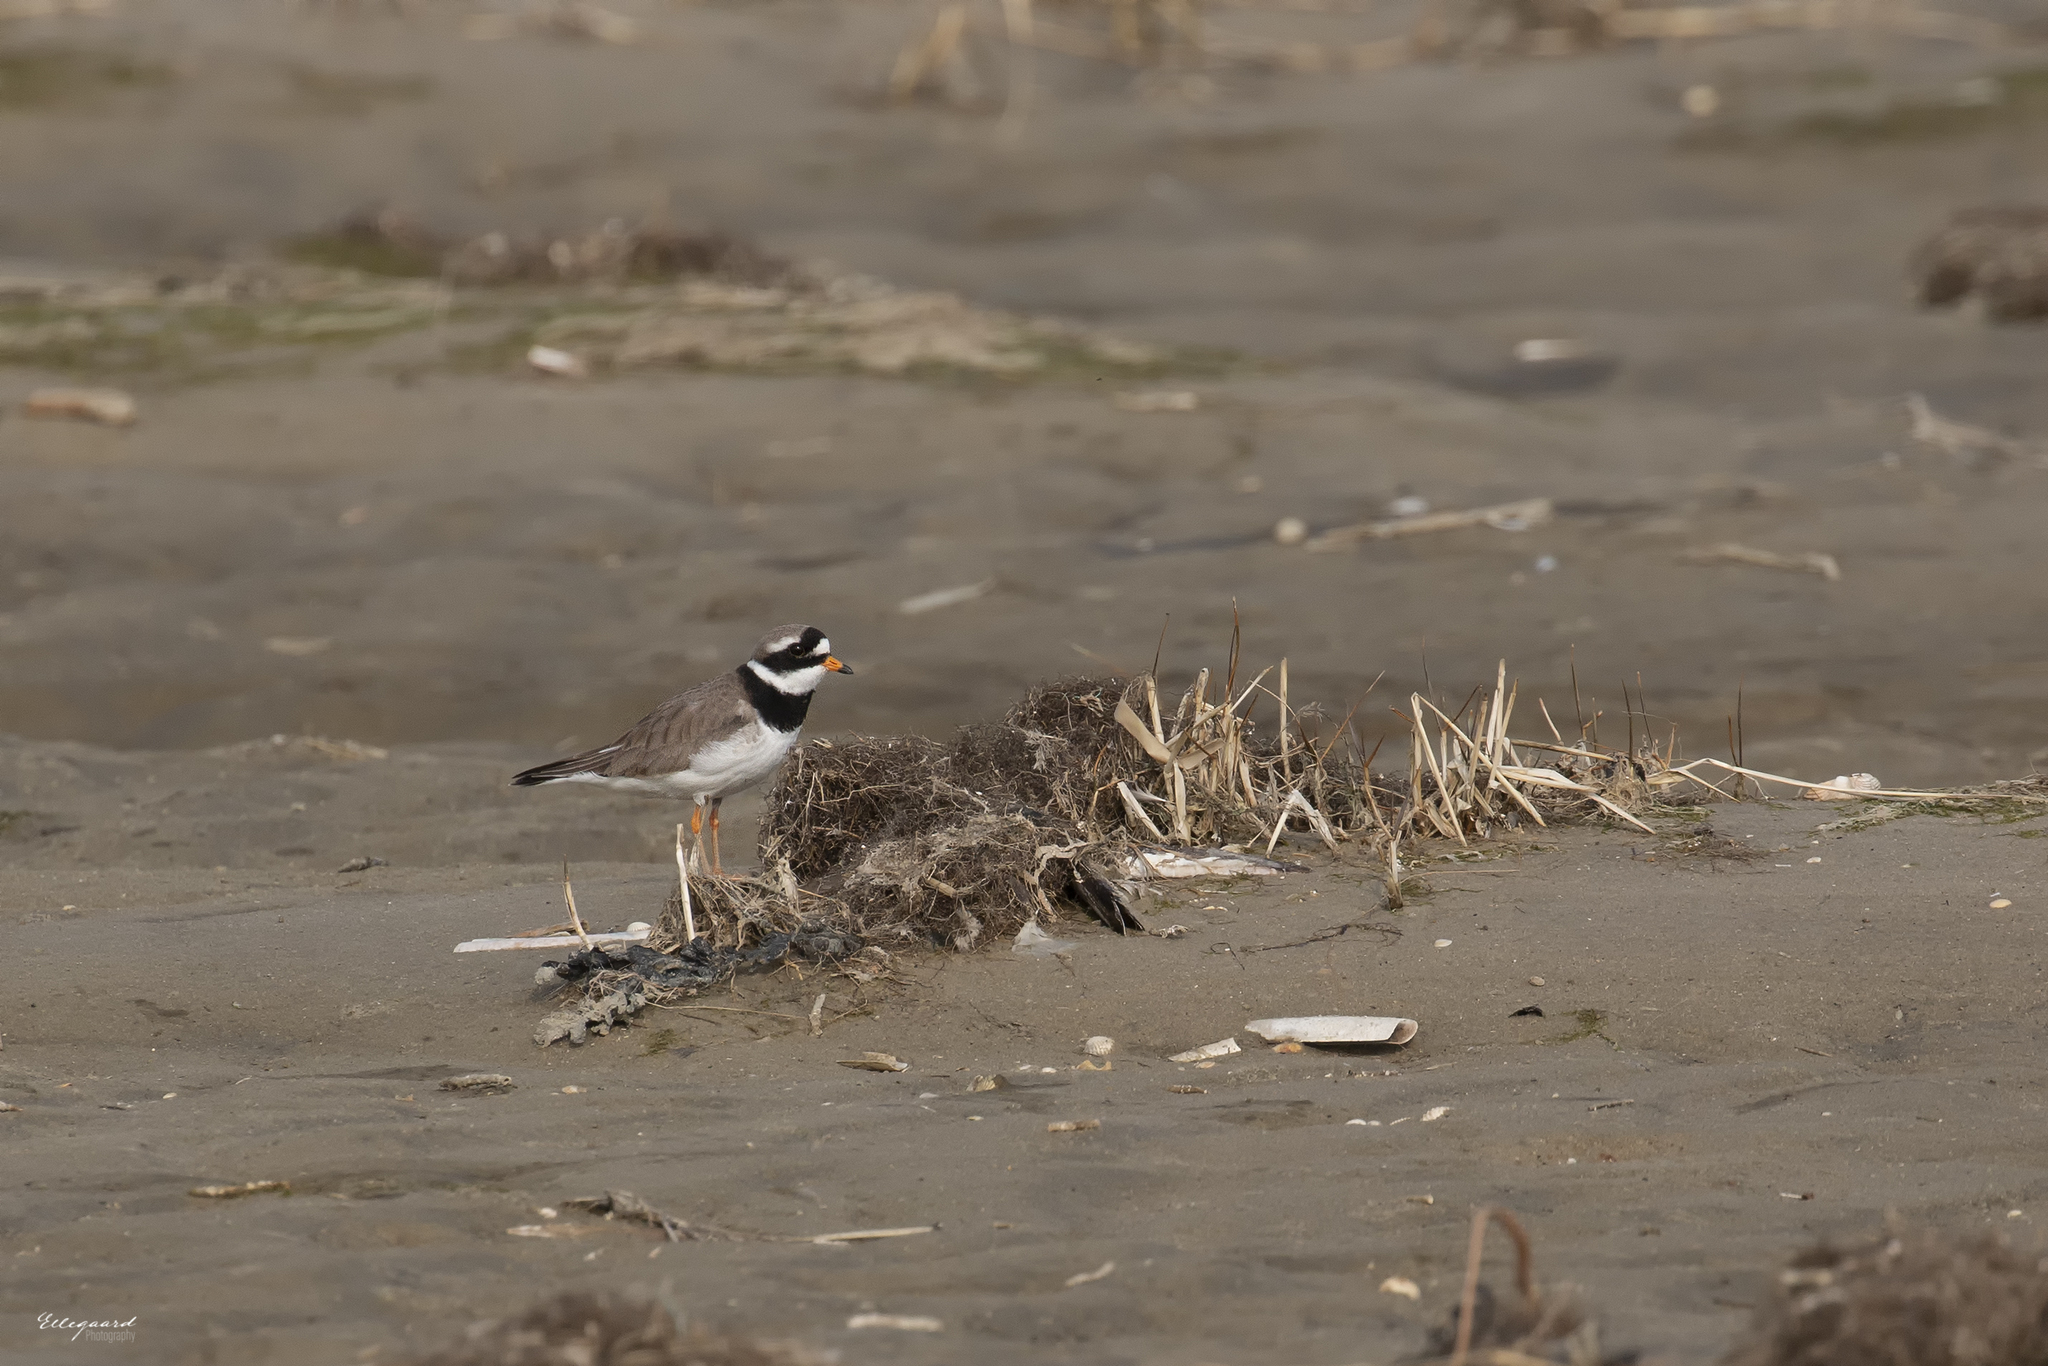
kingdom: Animalia
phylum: Chordata
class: Aves
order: Charadriiformes
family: Charadriidae
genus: Charadrius
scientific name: Charadrius hiaticula
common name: Common ringed plover
